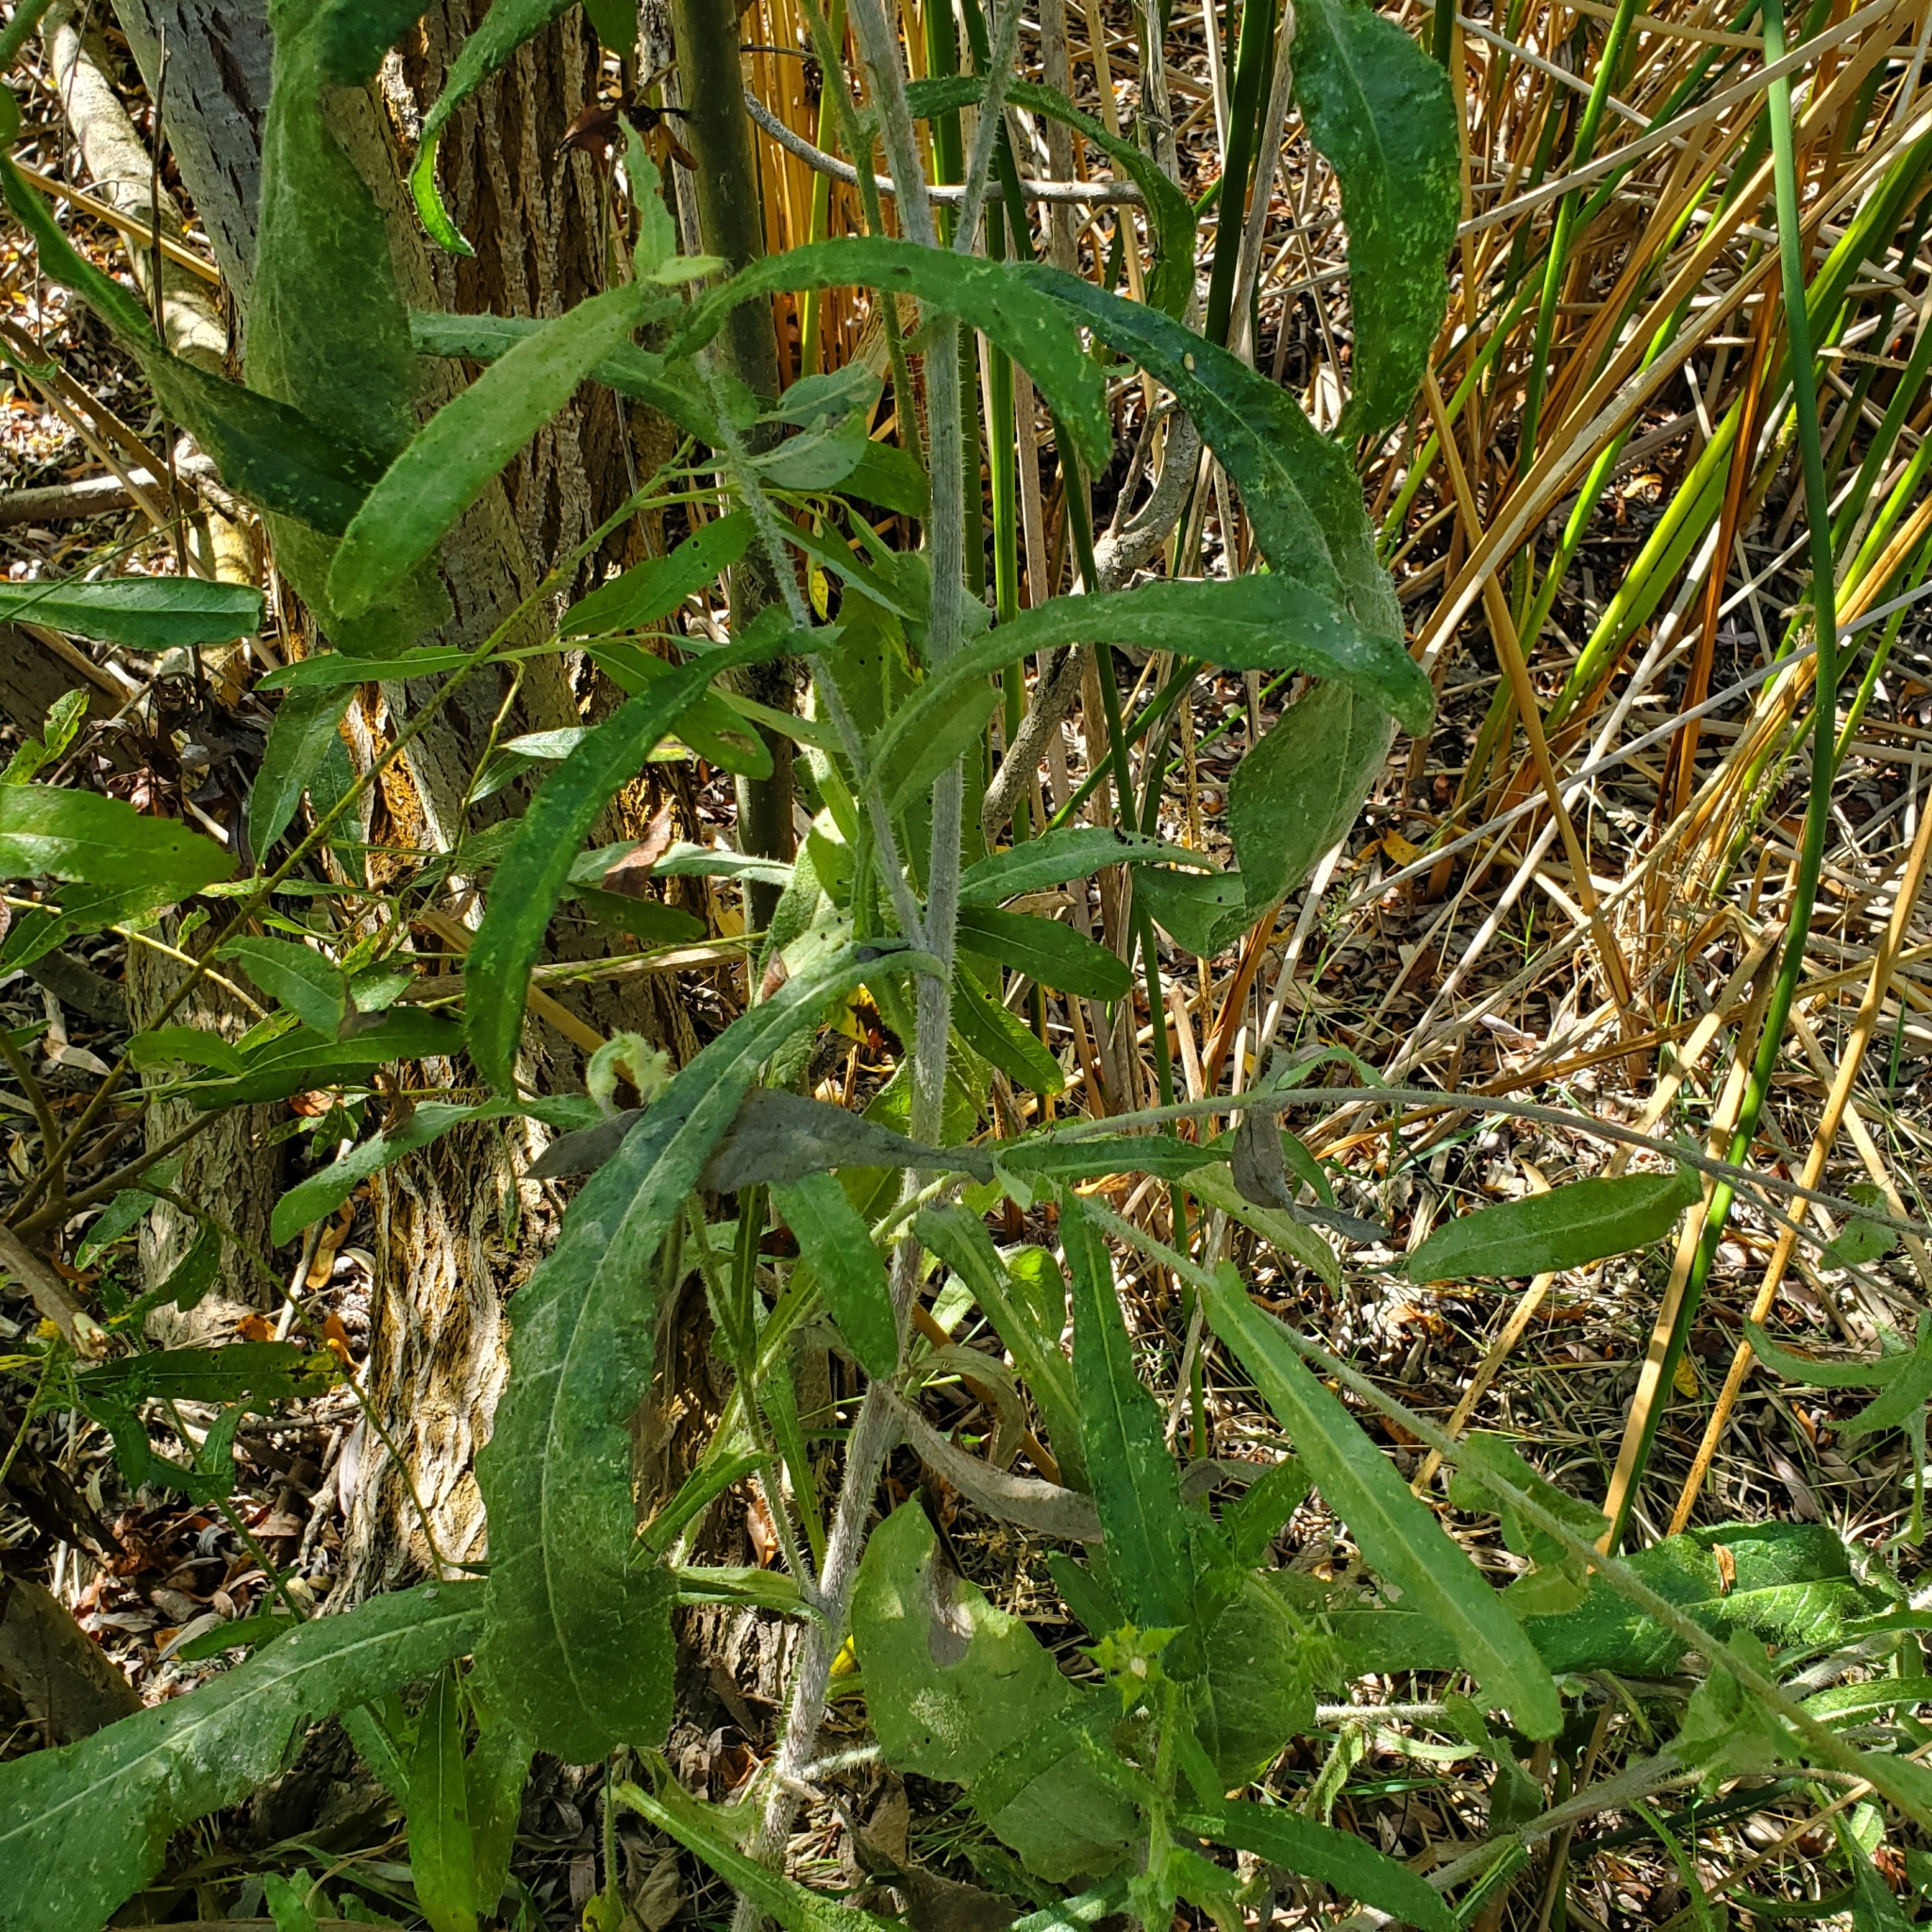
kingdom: Plantae
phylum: Tracheophyta
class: Magnoliopsida
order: Asterales
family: Asteraceae
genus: Helminthotheca
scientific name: Helminthotheca echioides
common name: Ox-tongue
